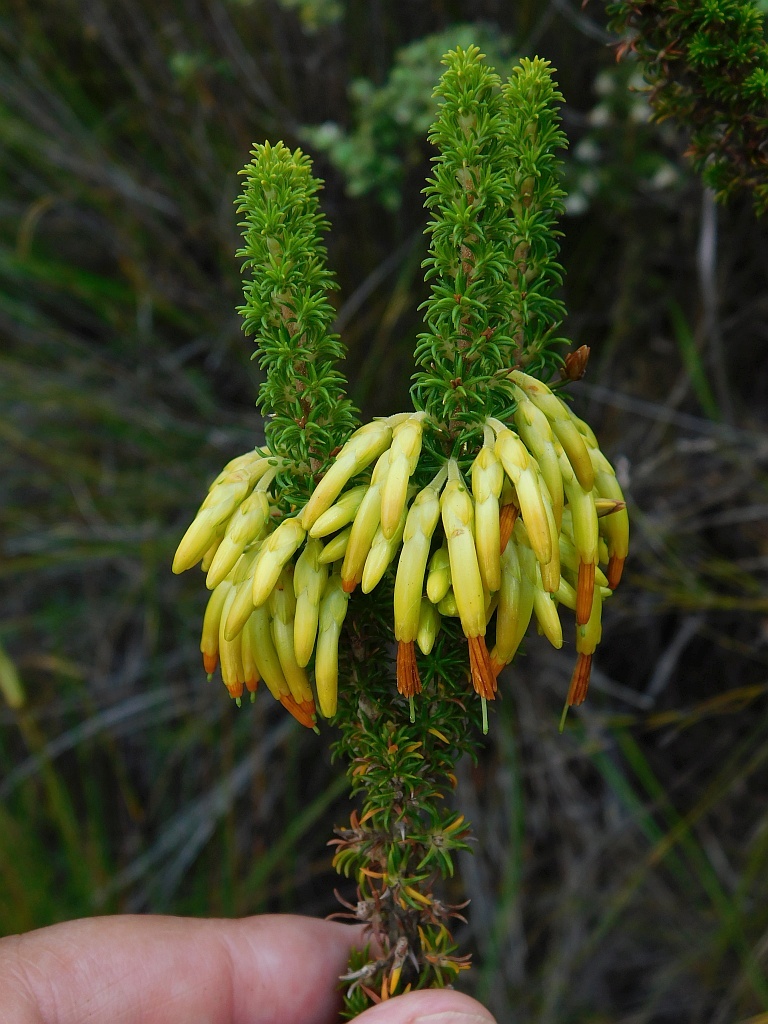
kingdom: Plantae
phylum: Tracheophyta
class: Magnoliopsida
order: Ericales
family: Ericaceae
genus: Erica
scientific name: Erica coccinea
